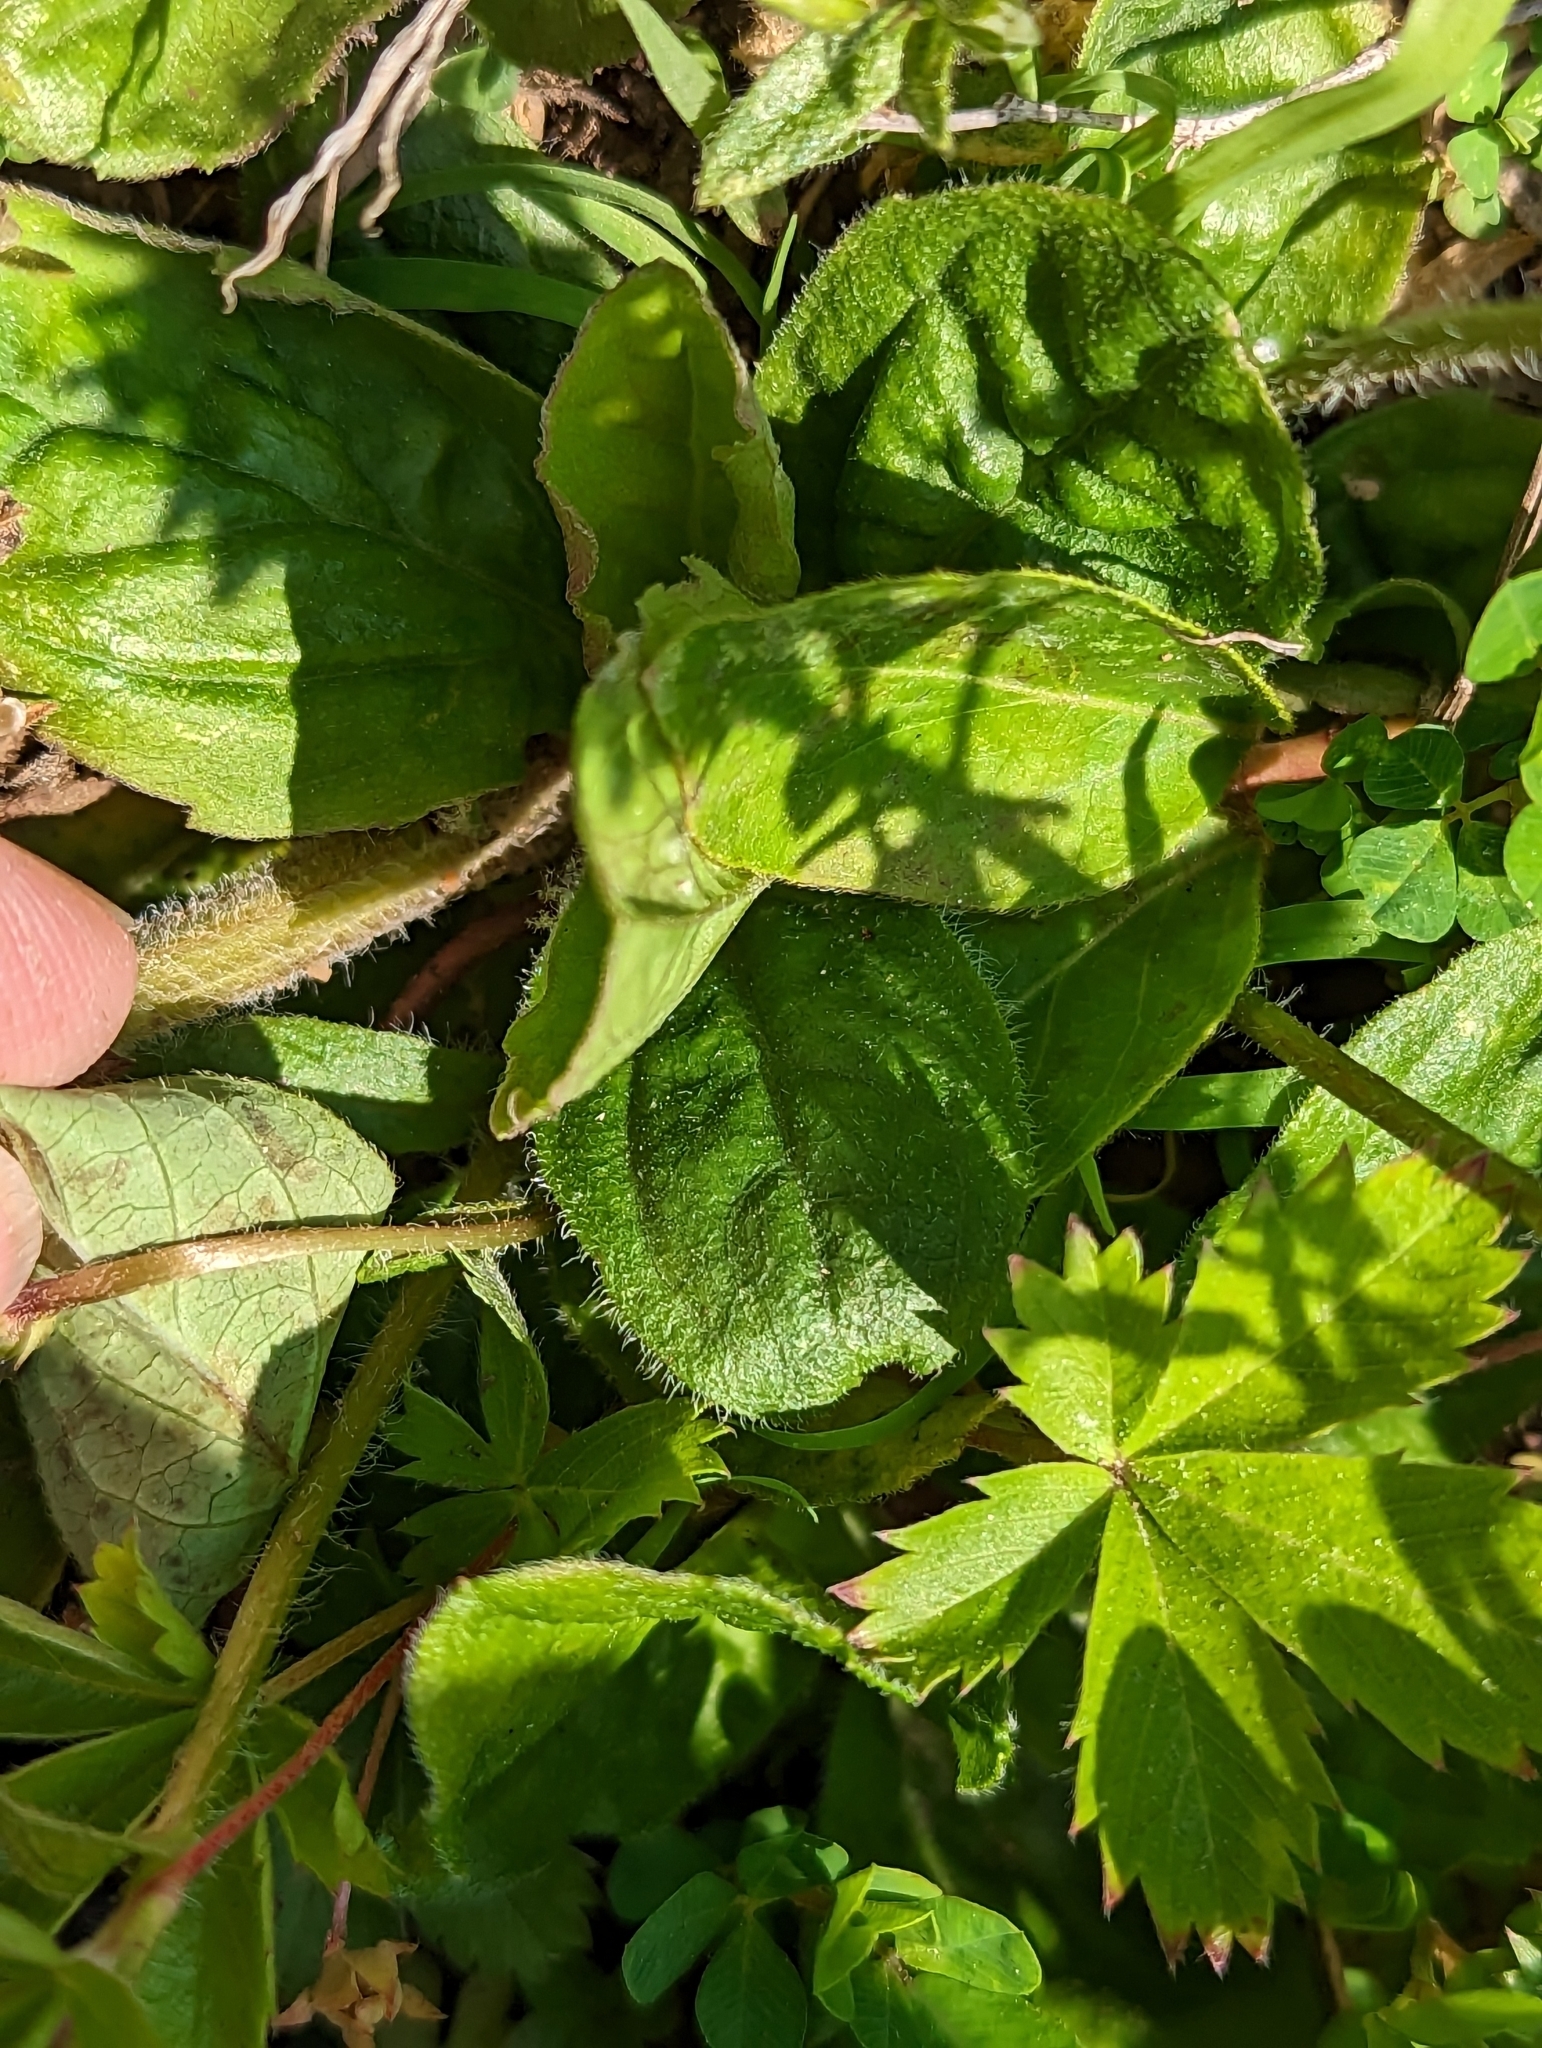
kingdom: Plantae
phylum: Tracheophyta
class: Magnoliopsida
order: Asterales
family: Asteraceae
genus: Erigeron
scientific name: Erigeron pulchellus
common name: Hairy fleabane
